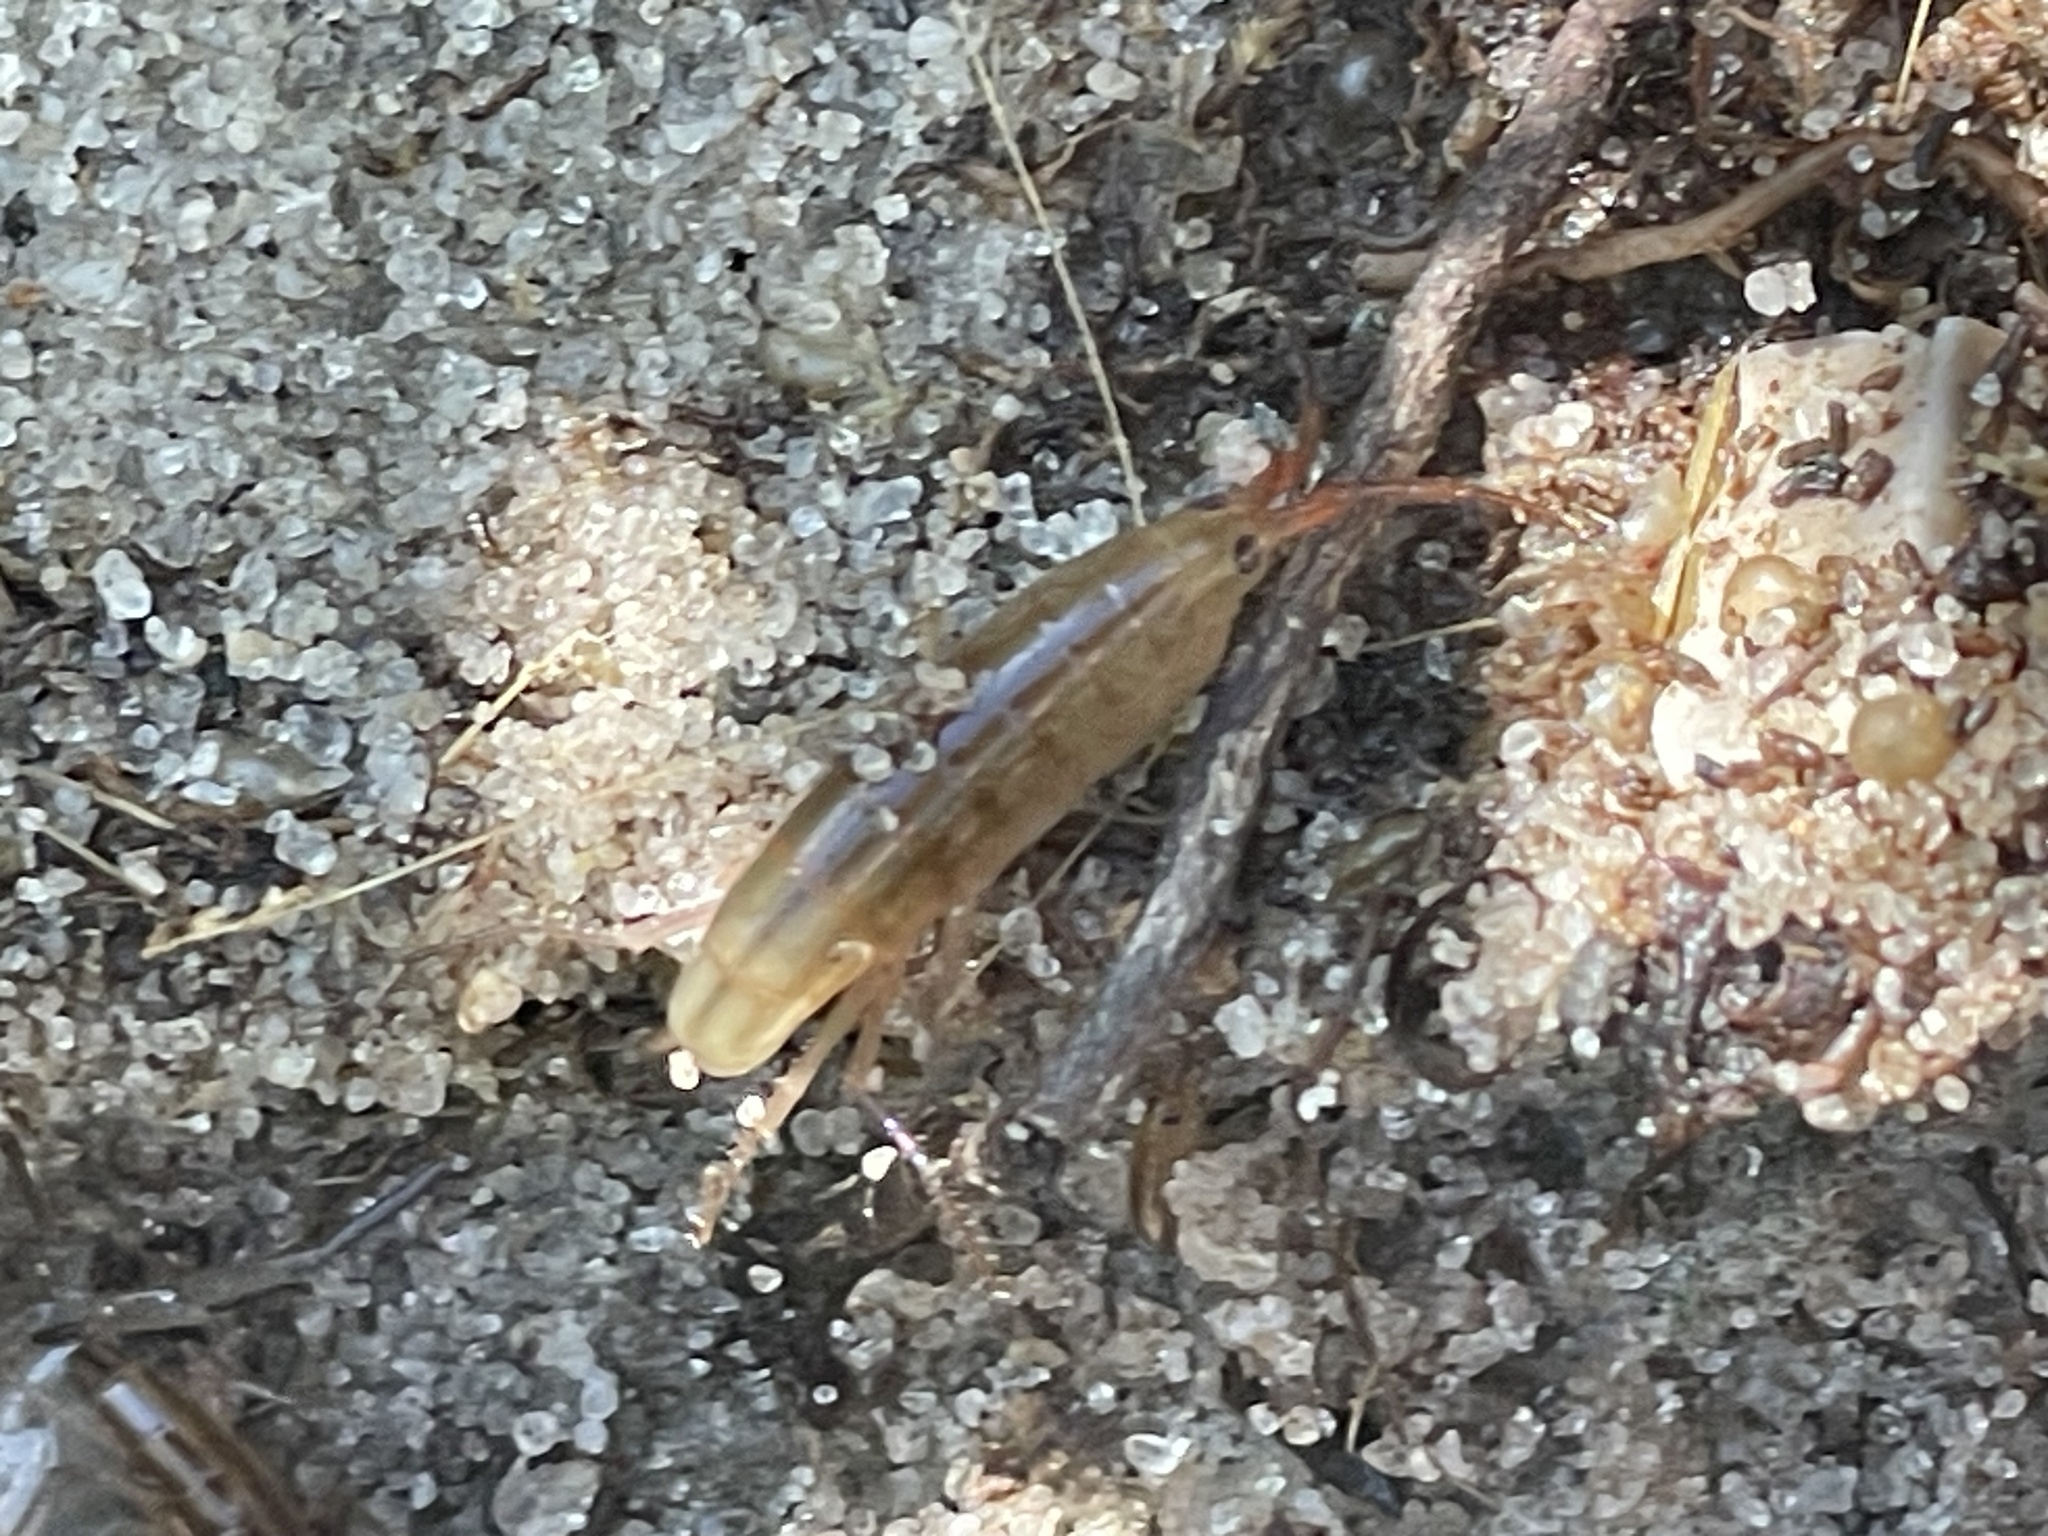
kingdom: Animalia
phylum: Arthropoda
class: Malacostraca
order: Amphipoda
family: Talitridae
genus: Speziorchestia
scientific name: Speziorchestia grillus
